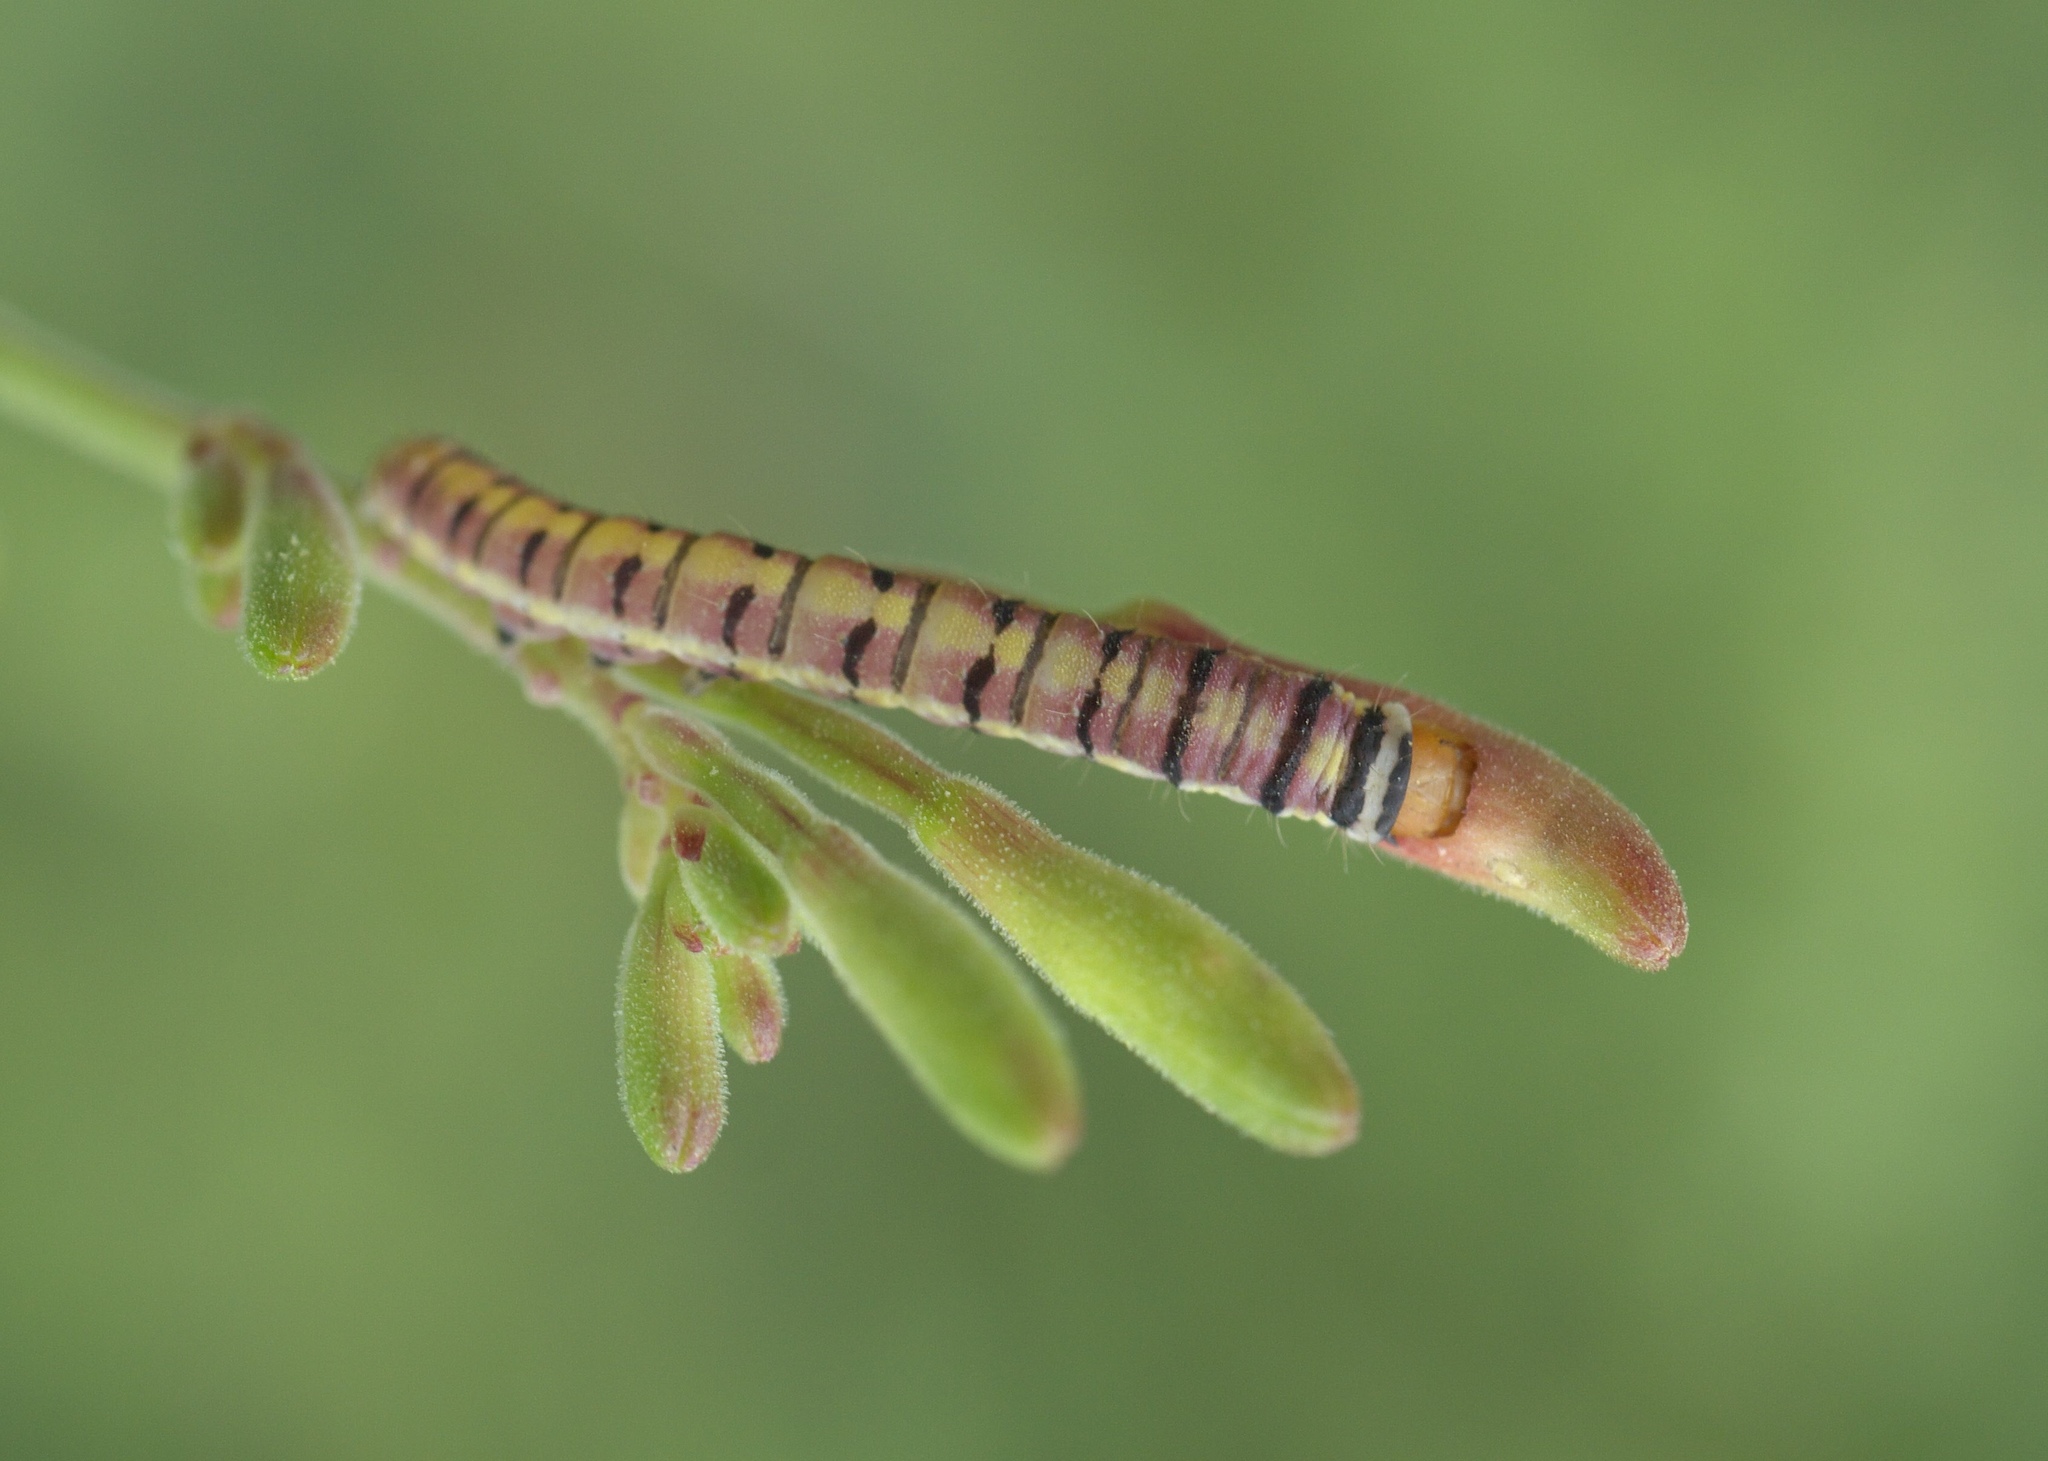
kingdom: Animalia
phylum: Arthropoda
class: Insecta
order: Lepidoptera
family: Noctuidae
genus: Schinia
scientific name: Schinia gaurae
